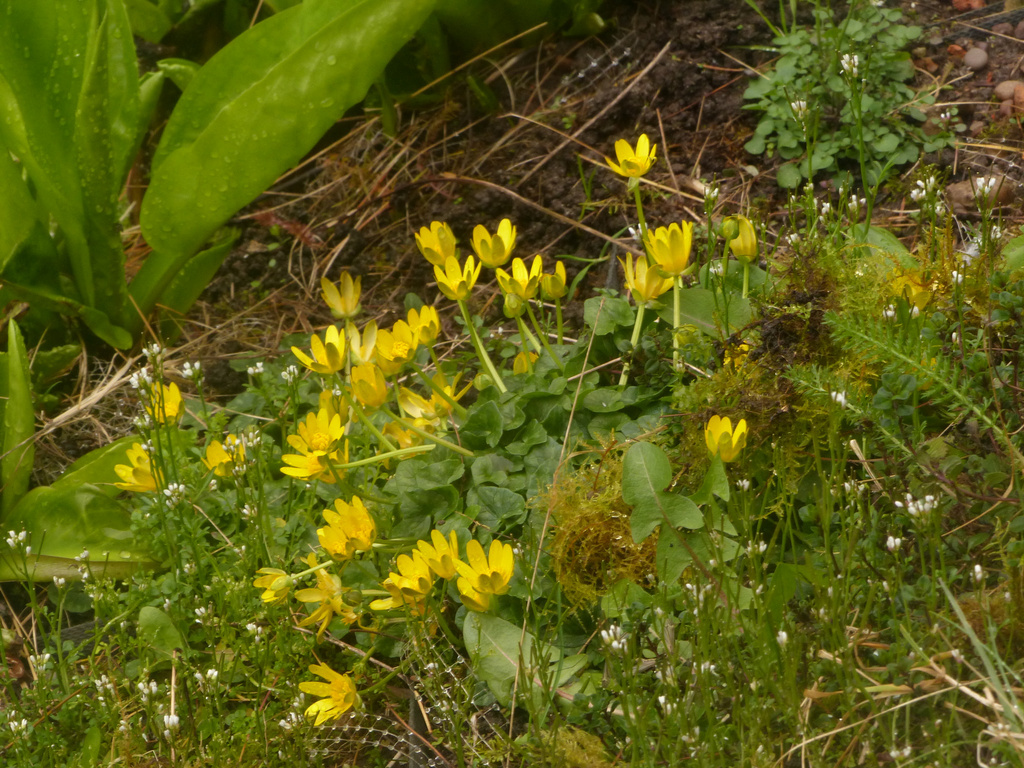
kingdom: Plantae
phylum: Tracheophyta
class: Magnoliopsida
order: Ranunculales
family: Ranunculaceae
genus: Ficaria
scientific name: Ficaria verna
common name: Lesser celandine
